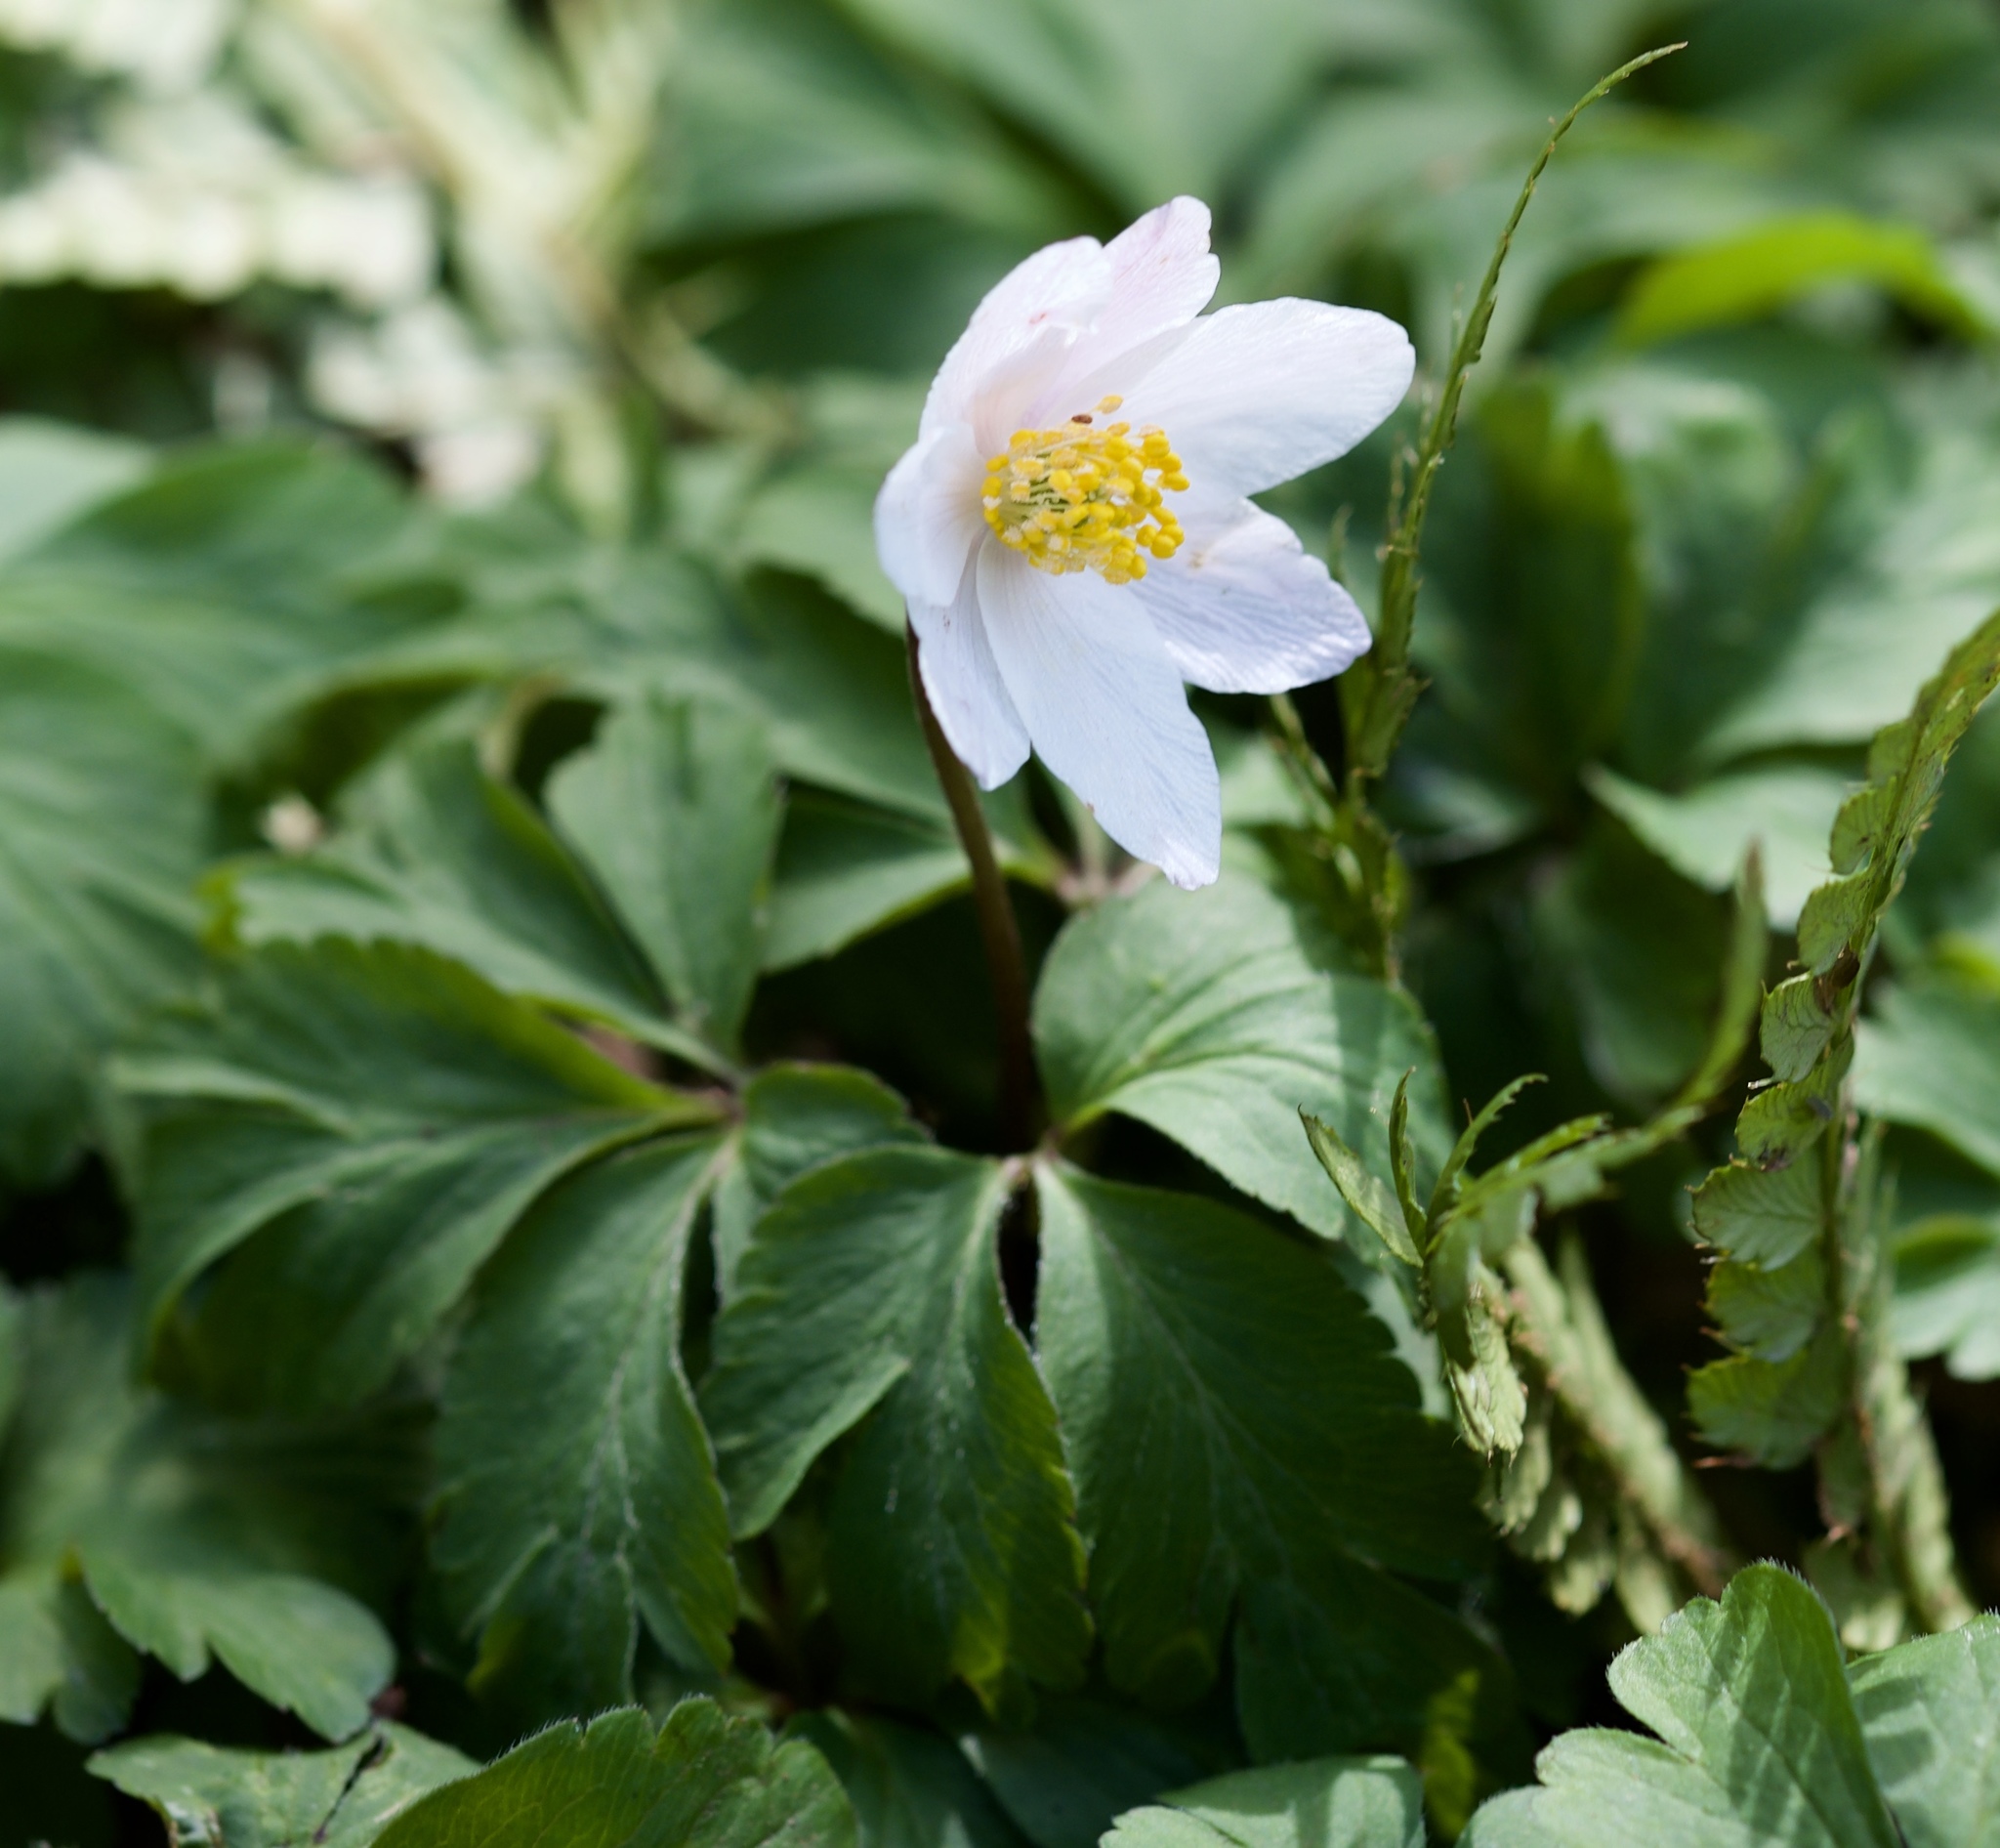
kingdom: Plantae
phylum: Tracheophyta
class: Magnoliopsida
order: Ranunculales
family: Ranunculaceae
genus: Anemone
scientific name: Anemone nemorosa
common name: Wood anemone
